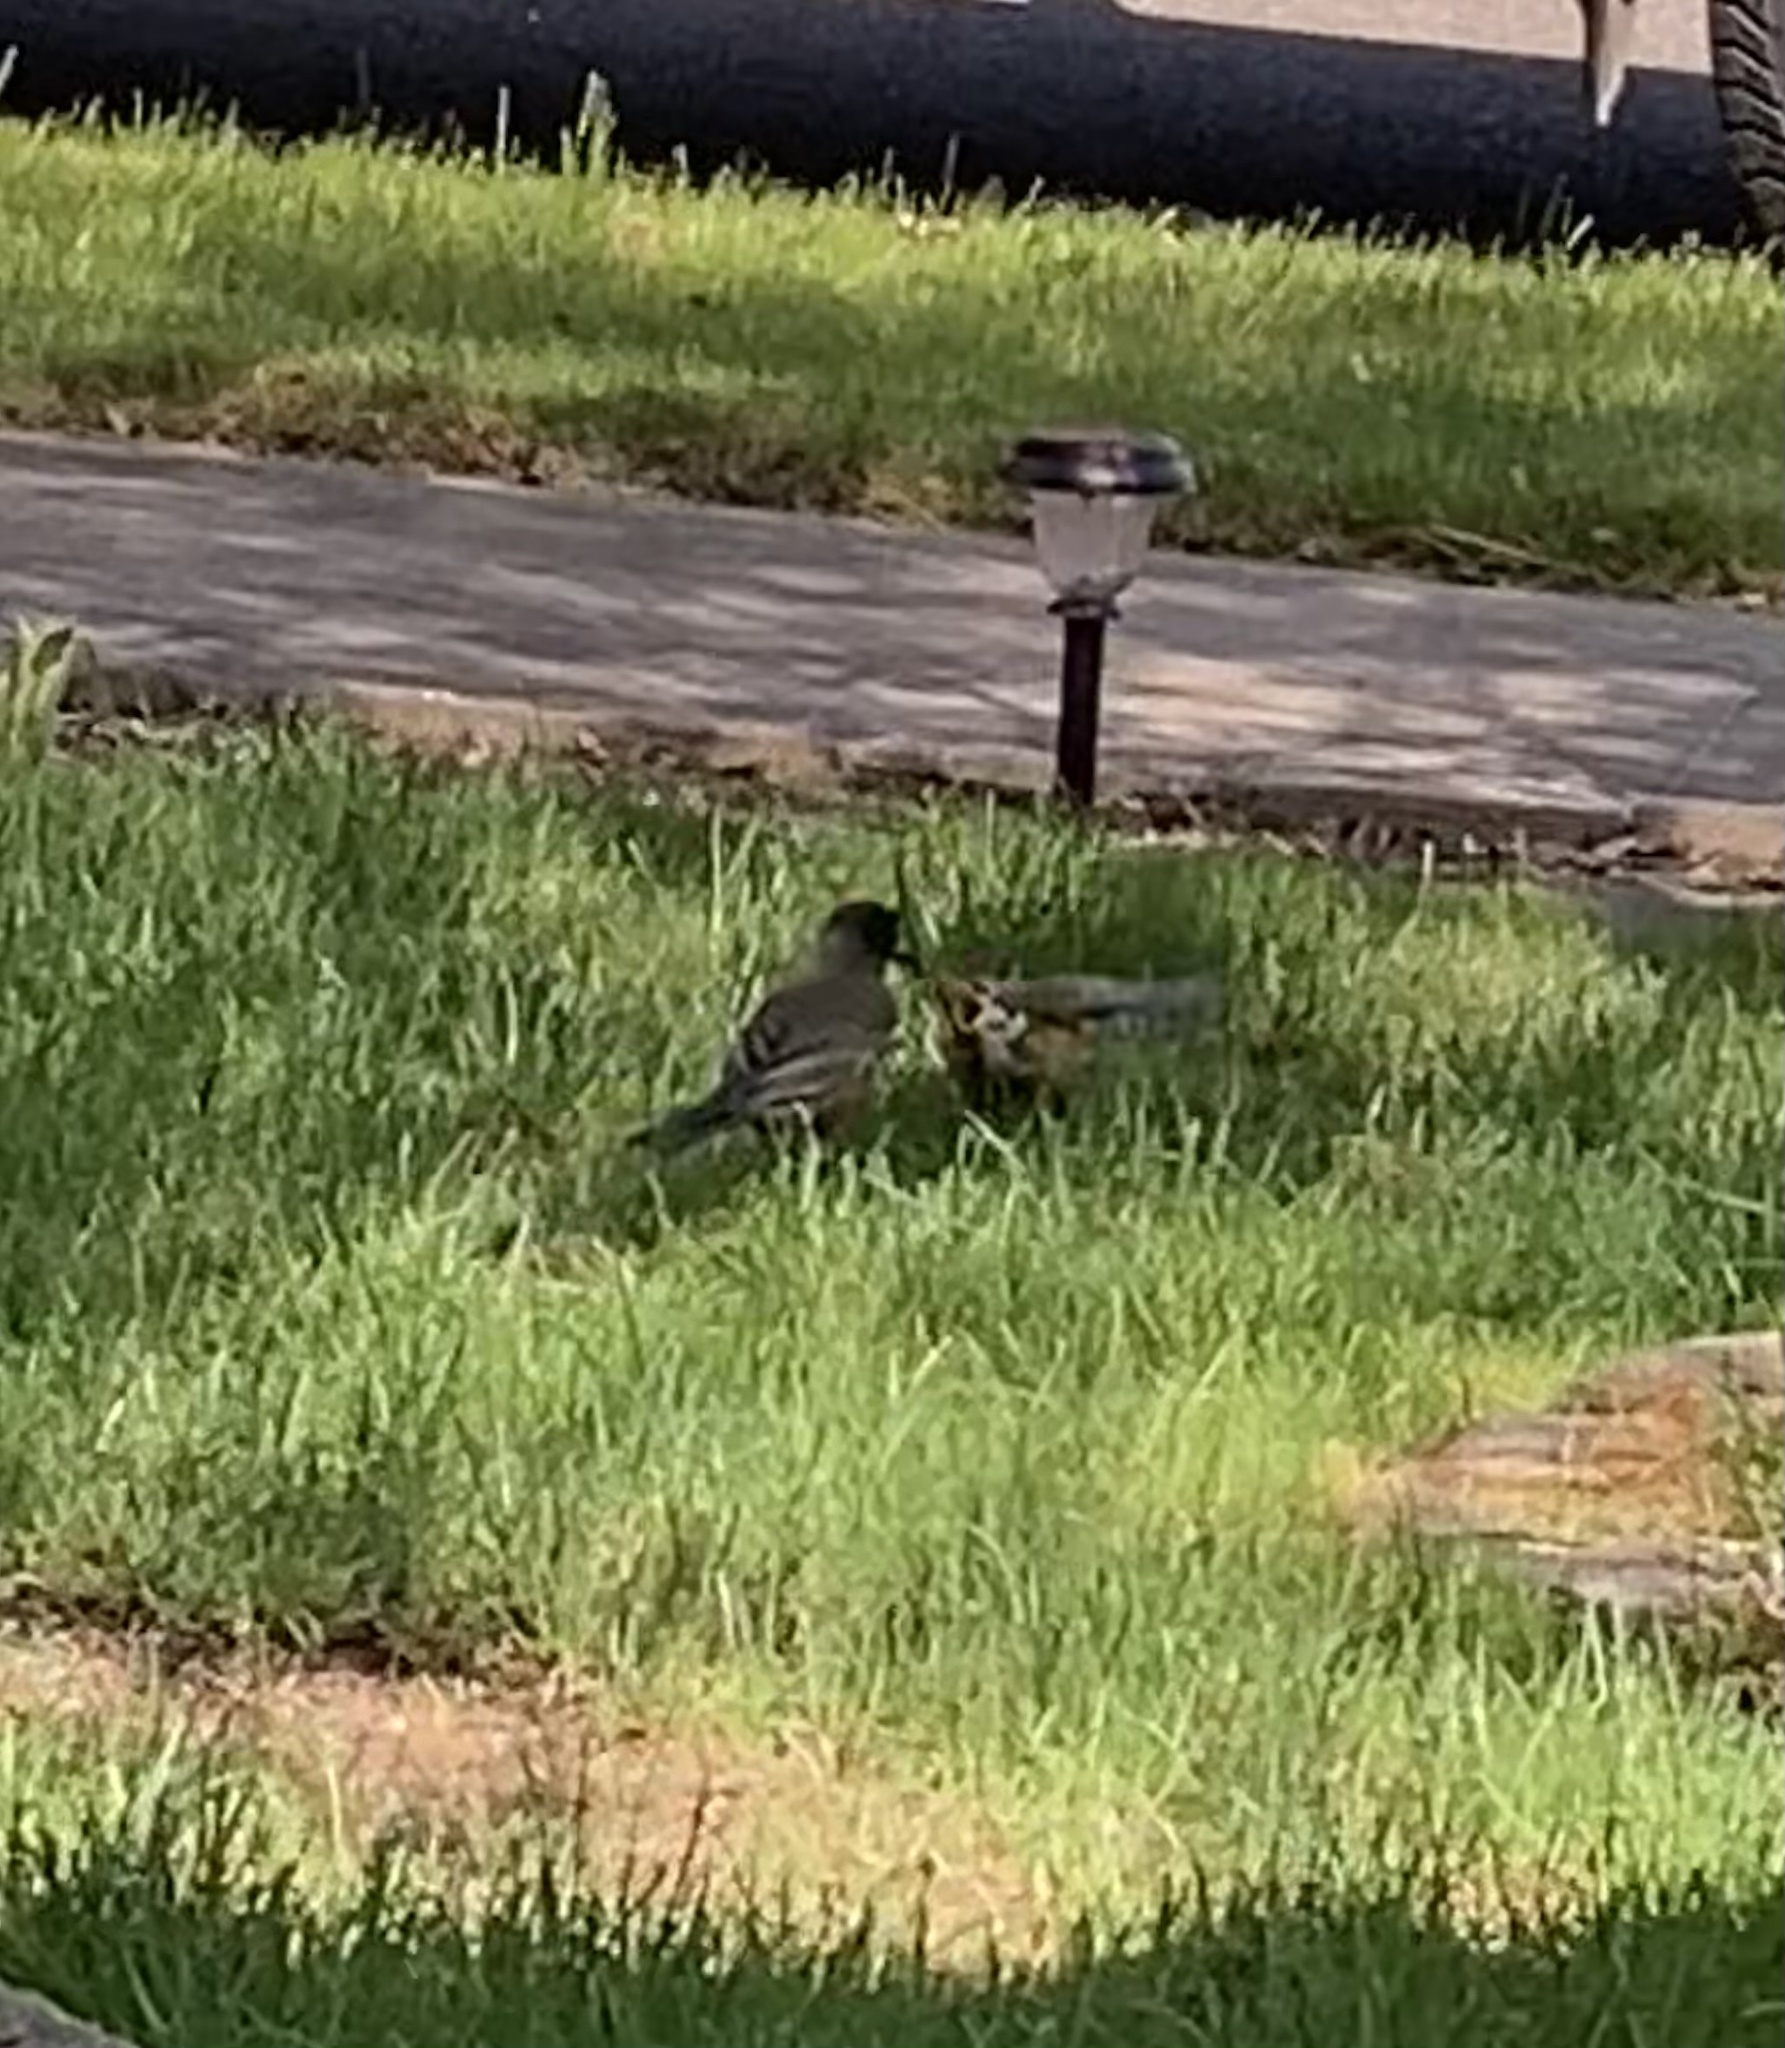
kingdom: Animalia
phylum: Chordata
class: Aves
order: Passeriformes
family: Turdidae
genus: Turdus
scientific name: Turdus migratorius
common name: American robin
